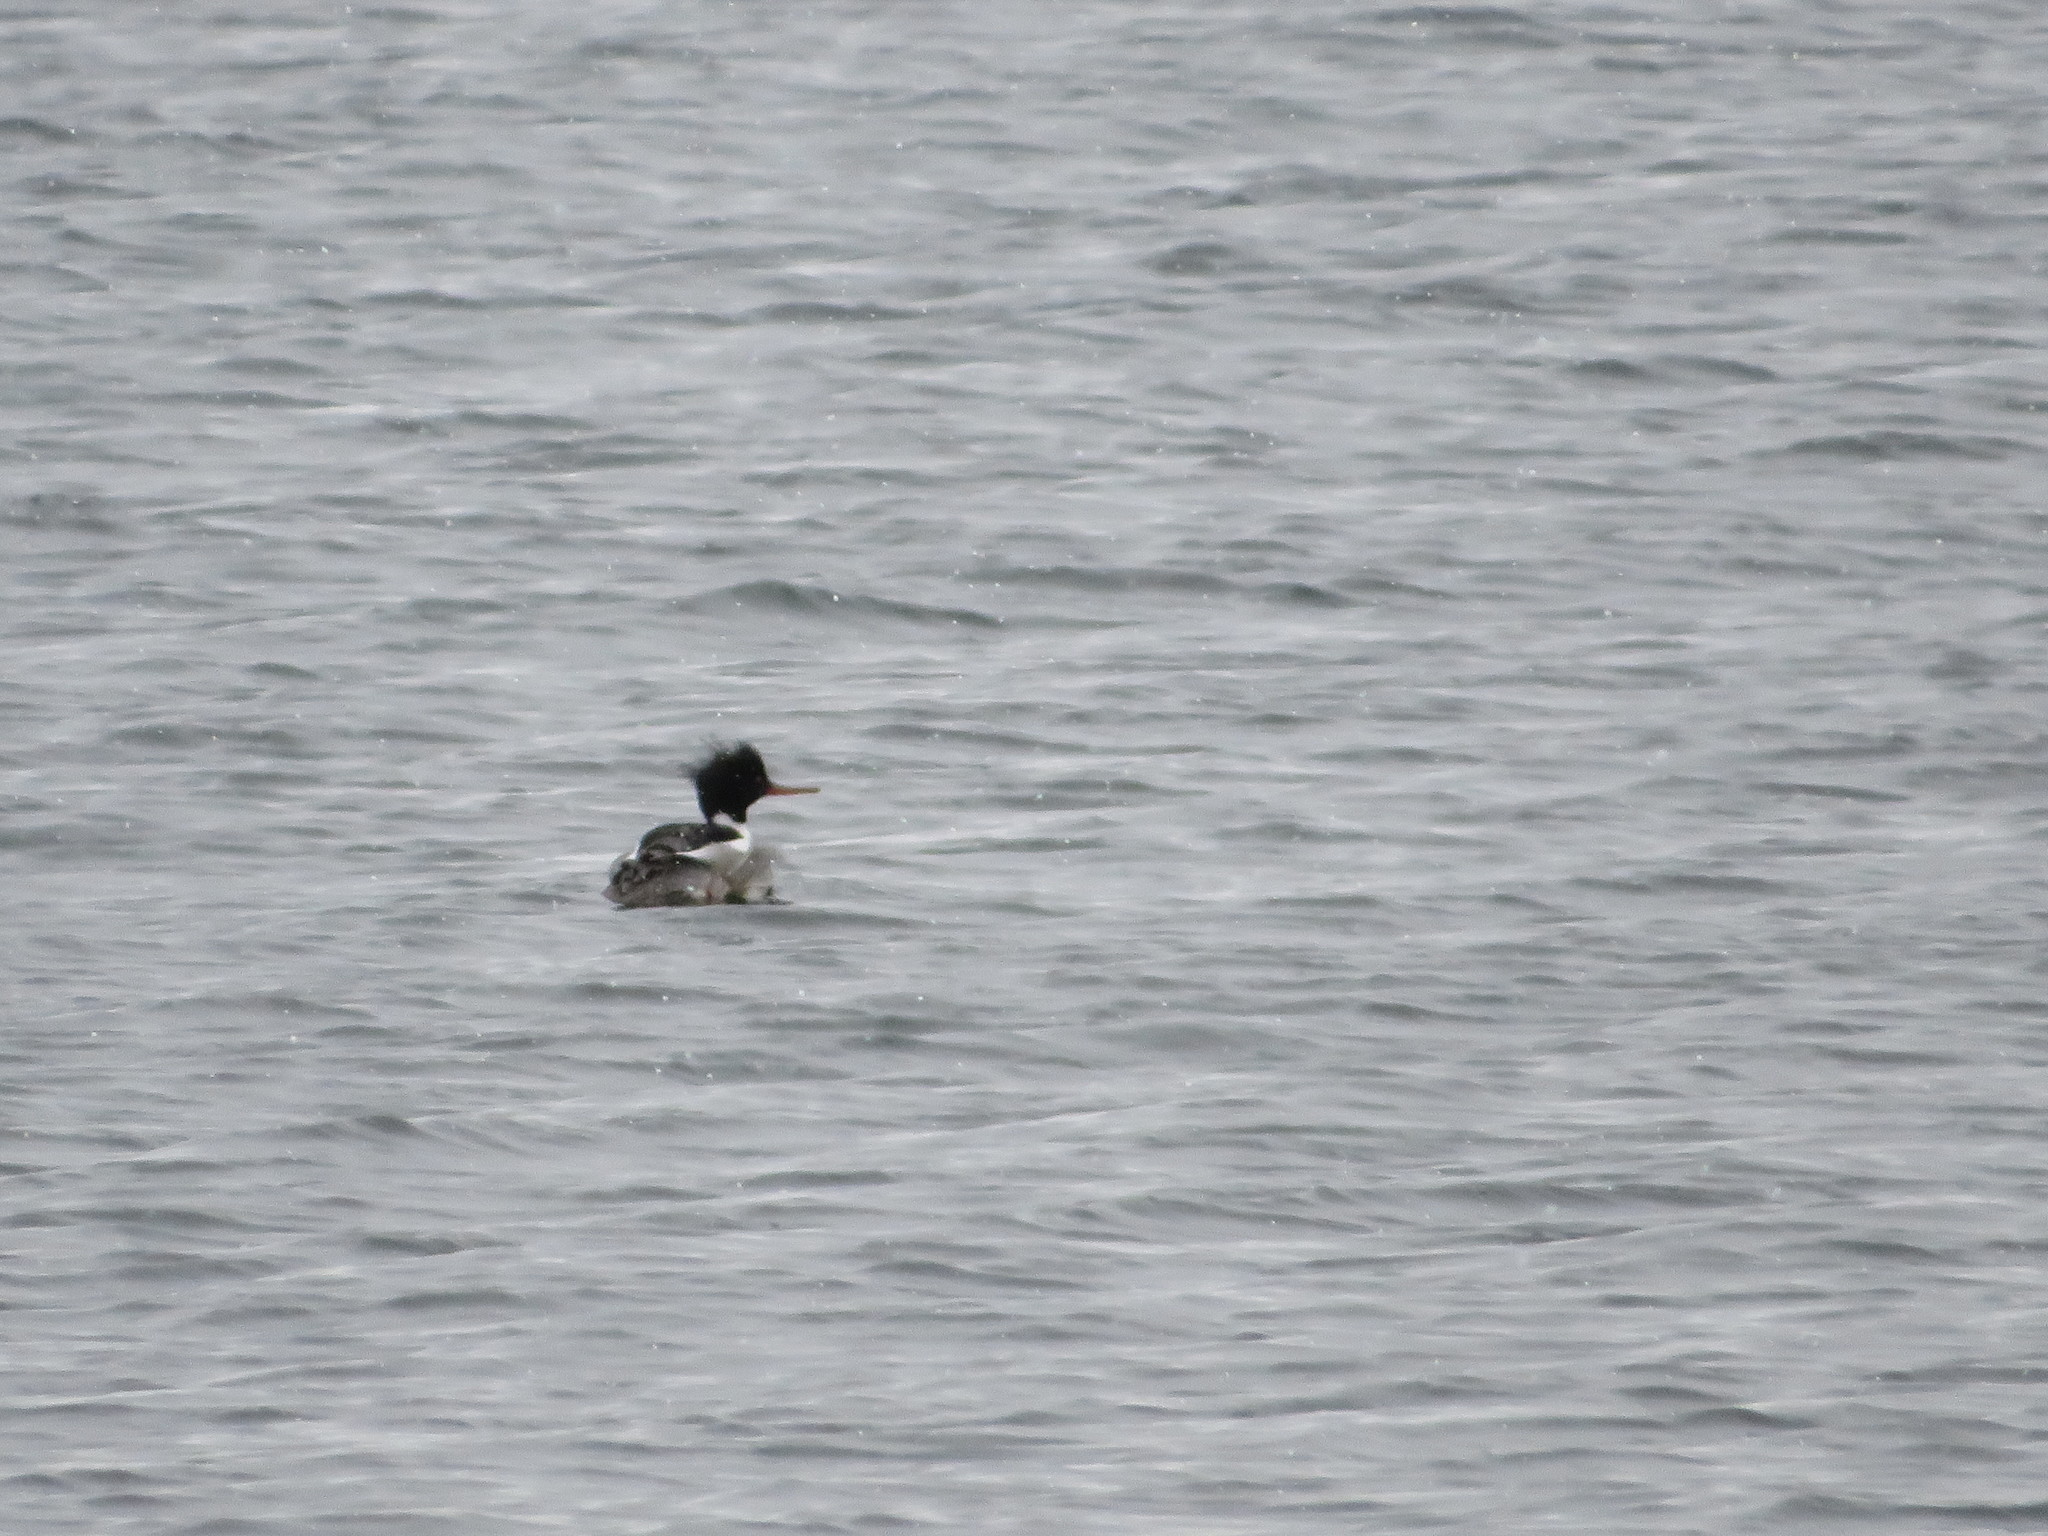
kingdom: Animalia
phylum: Chordata
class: Aves
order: Anseriformes
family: Anatidae
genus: Mergus
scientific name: Mergus serrator
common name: Red-breasted merganser
